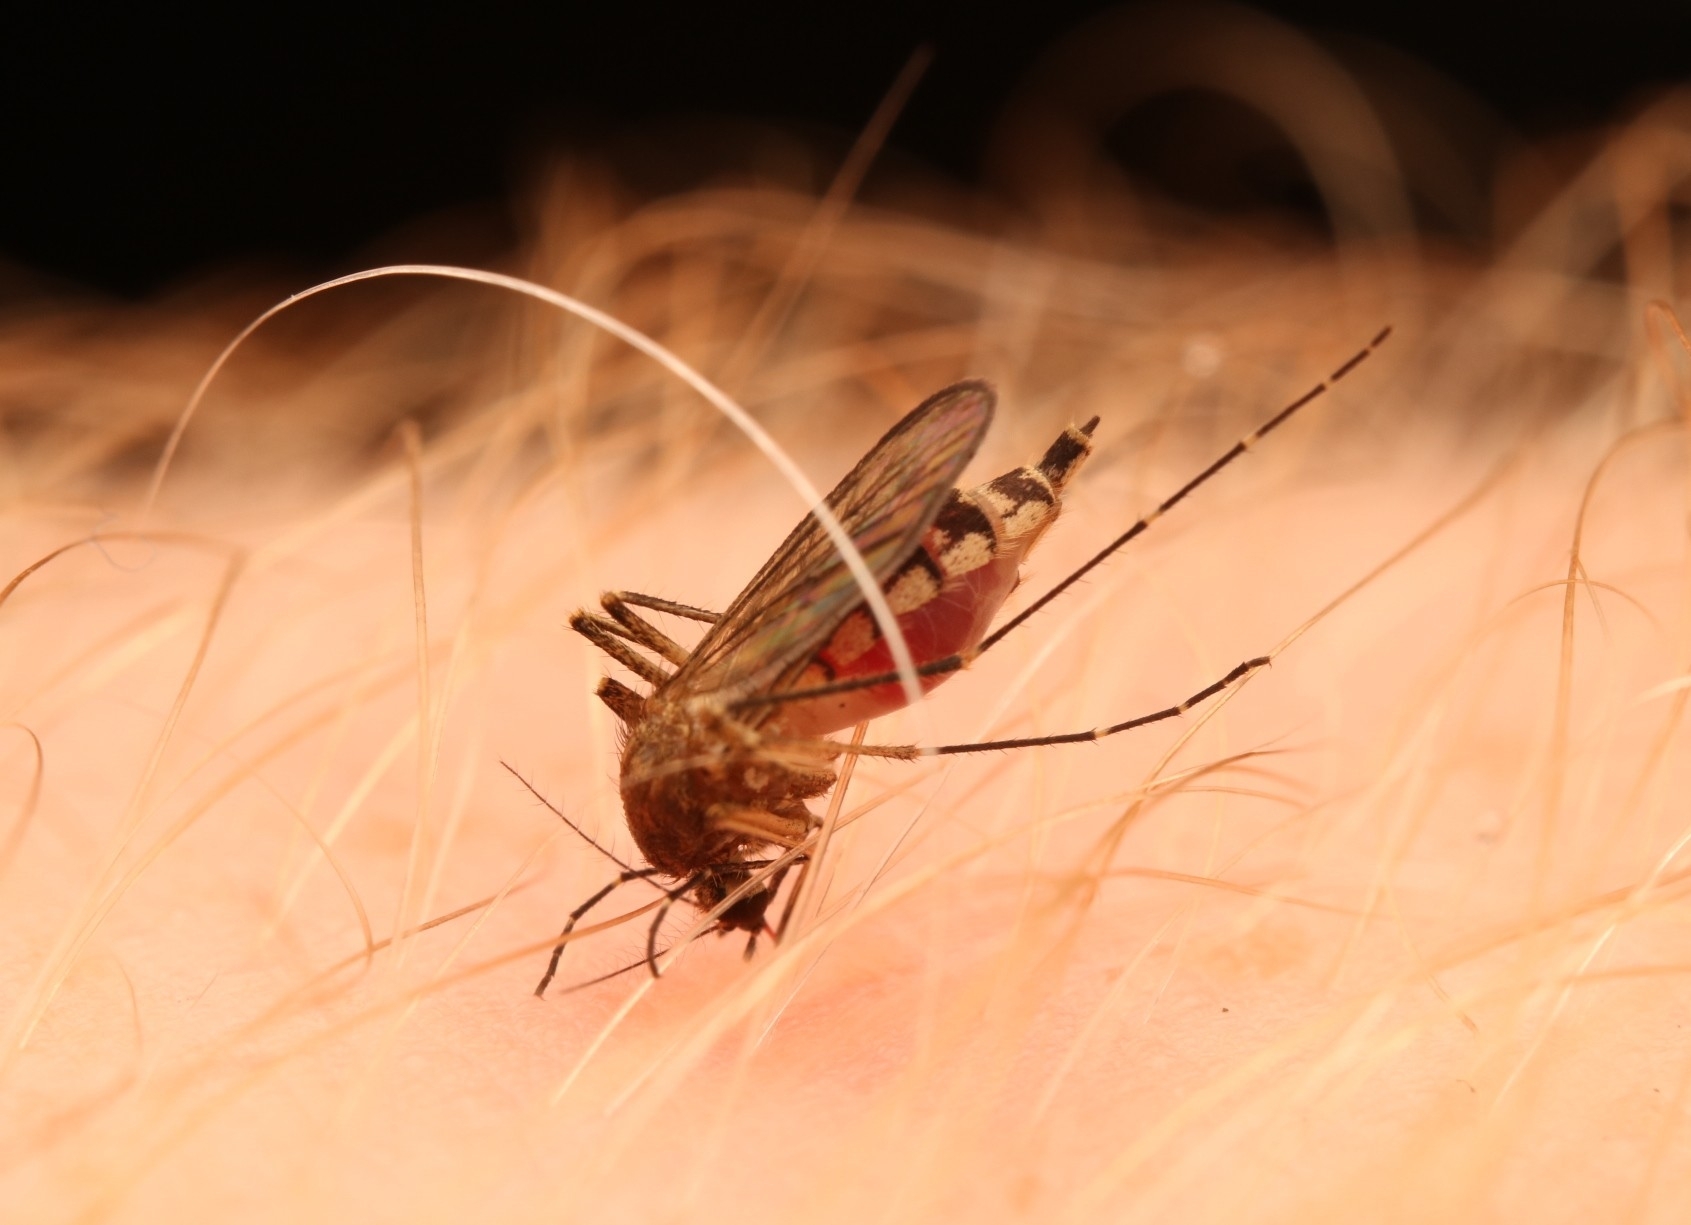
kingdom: Animalia
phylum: Arthropoda
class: Insecta
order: Diptera
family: Culicidae
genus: Aedes
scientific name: Aedes vexans
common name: Inland floodwater mosquito
